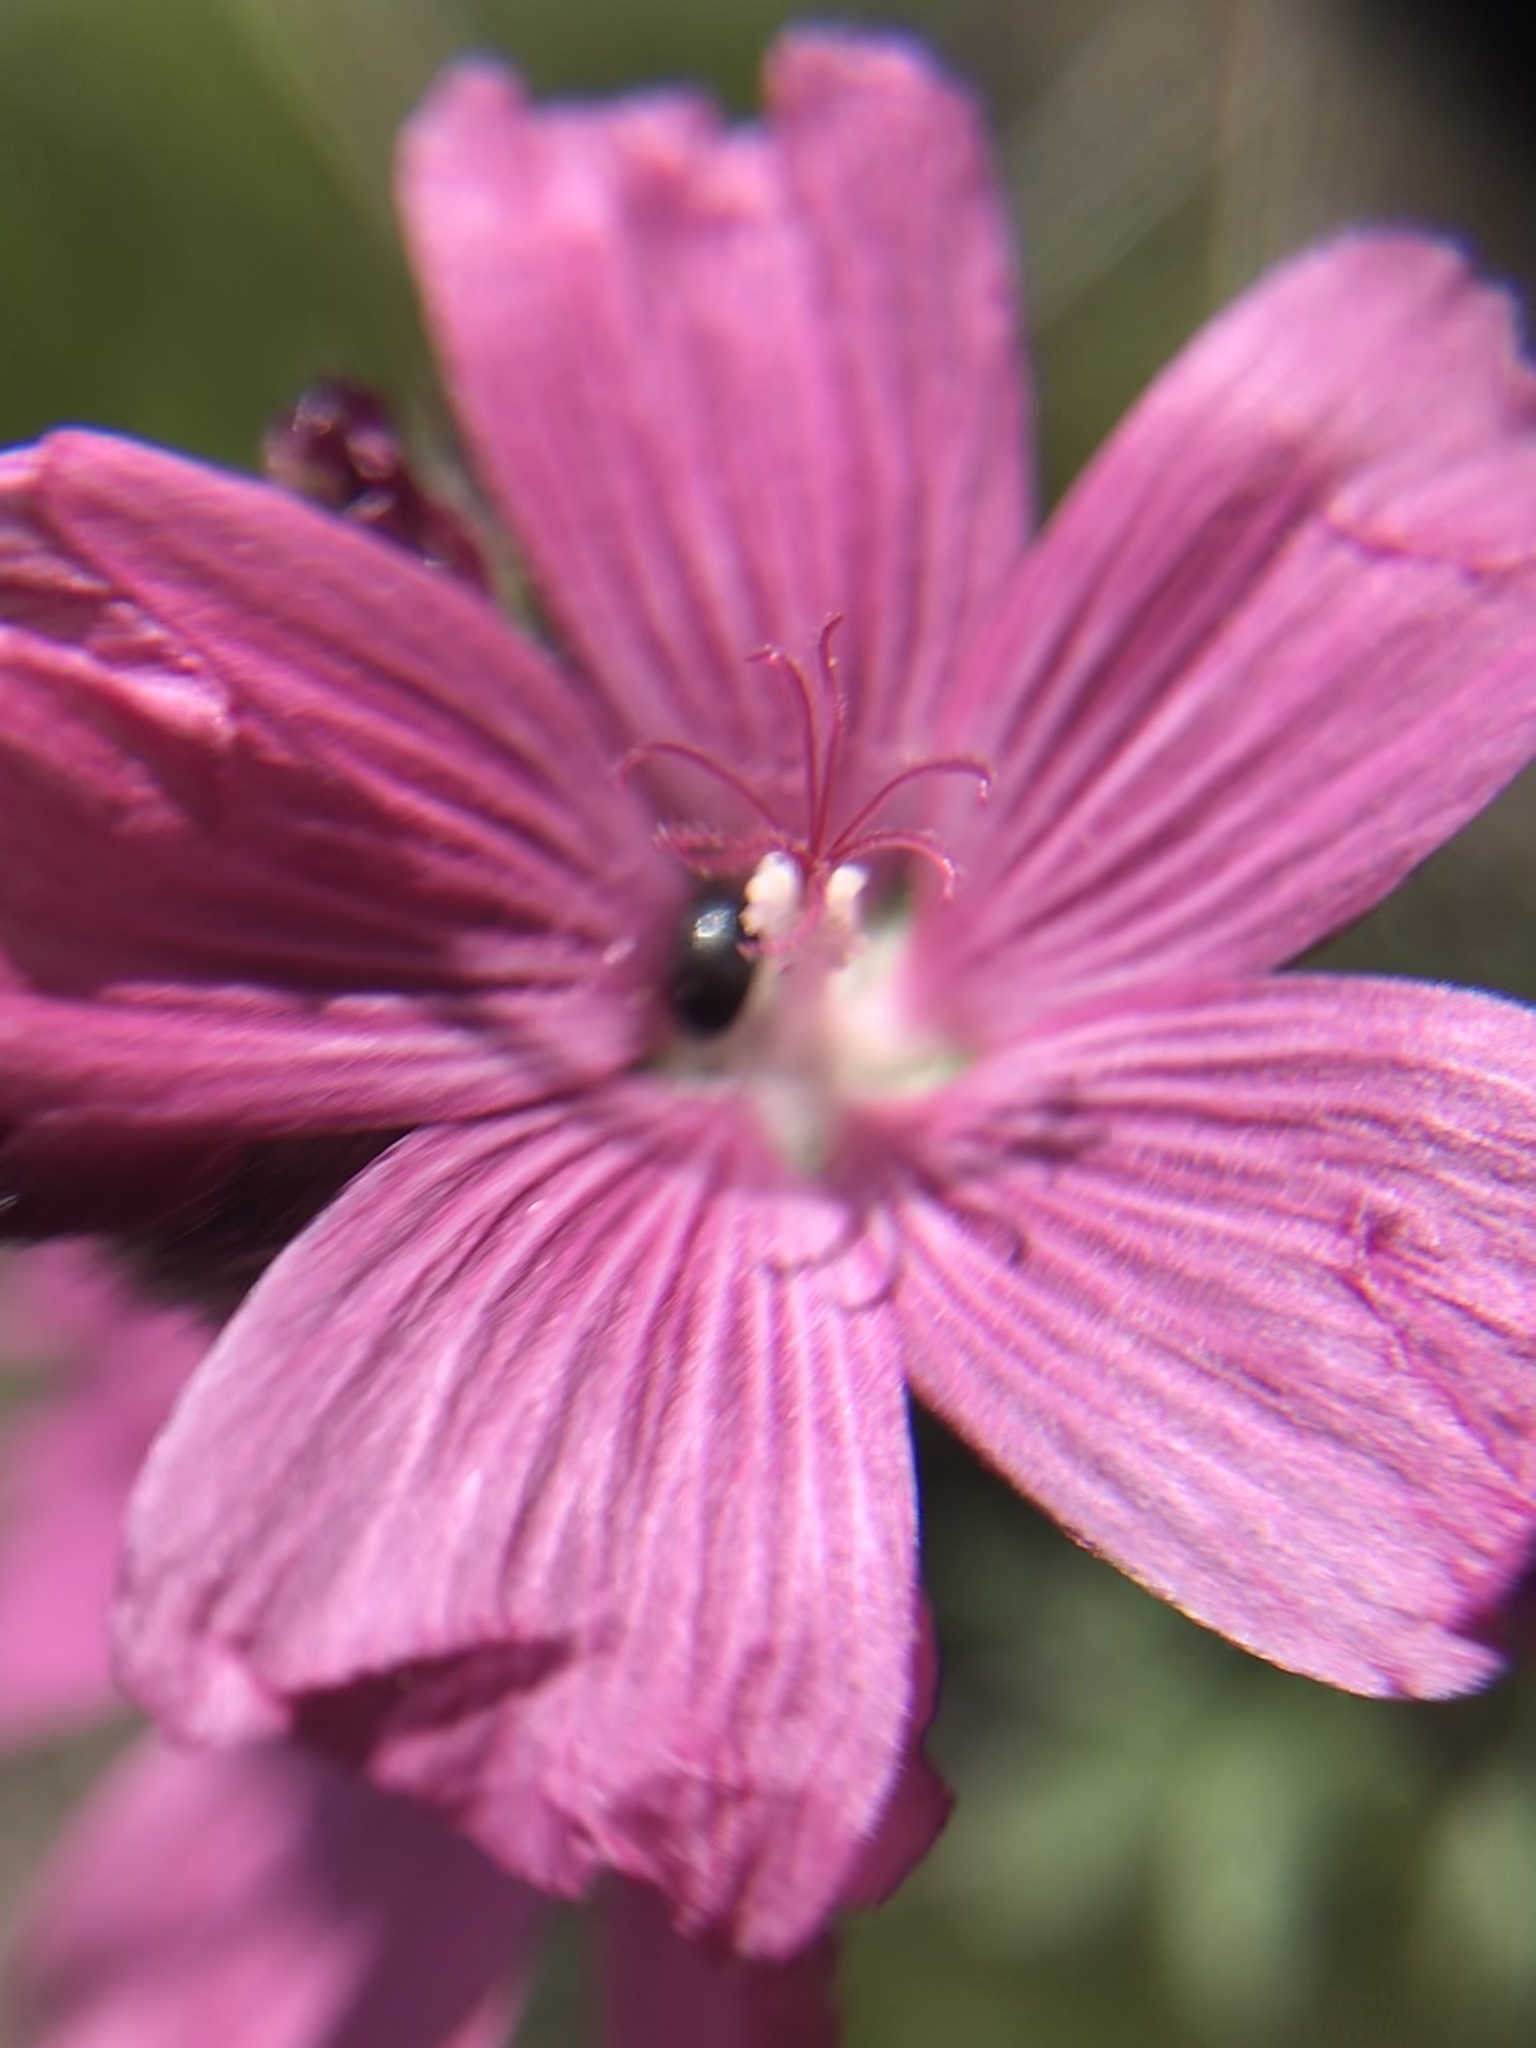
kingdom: Plantae
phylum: Tracheophyta
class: Magnoliopsida
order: Malvales
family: Malvaceae
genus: Sidalcea
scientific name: Sidalcea malviflora
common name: Greek mallow
